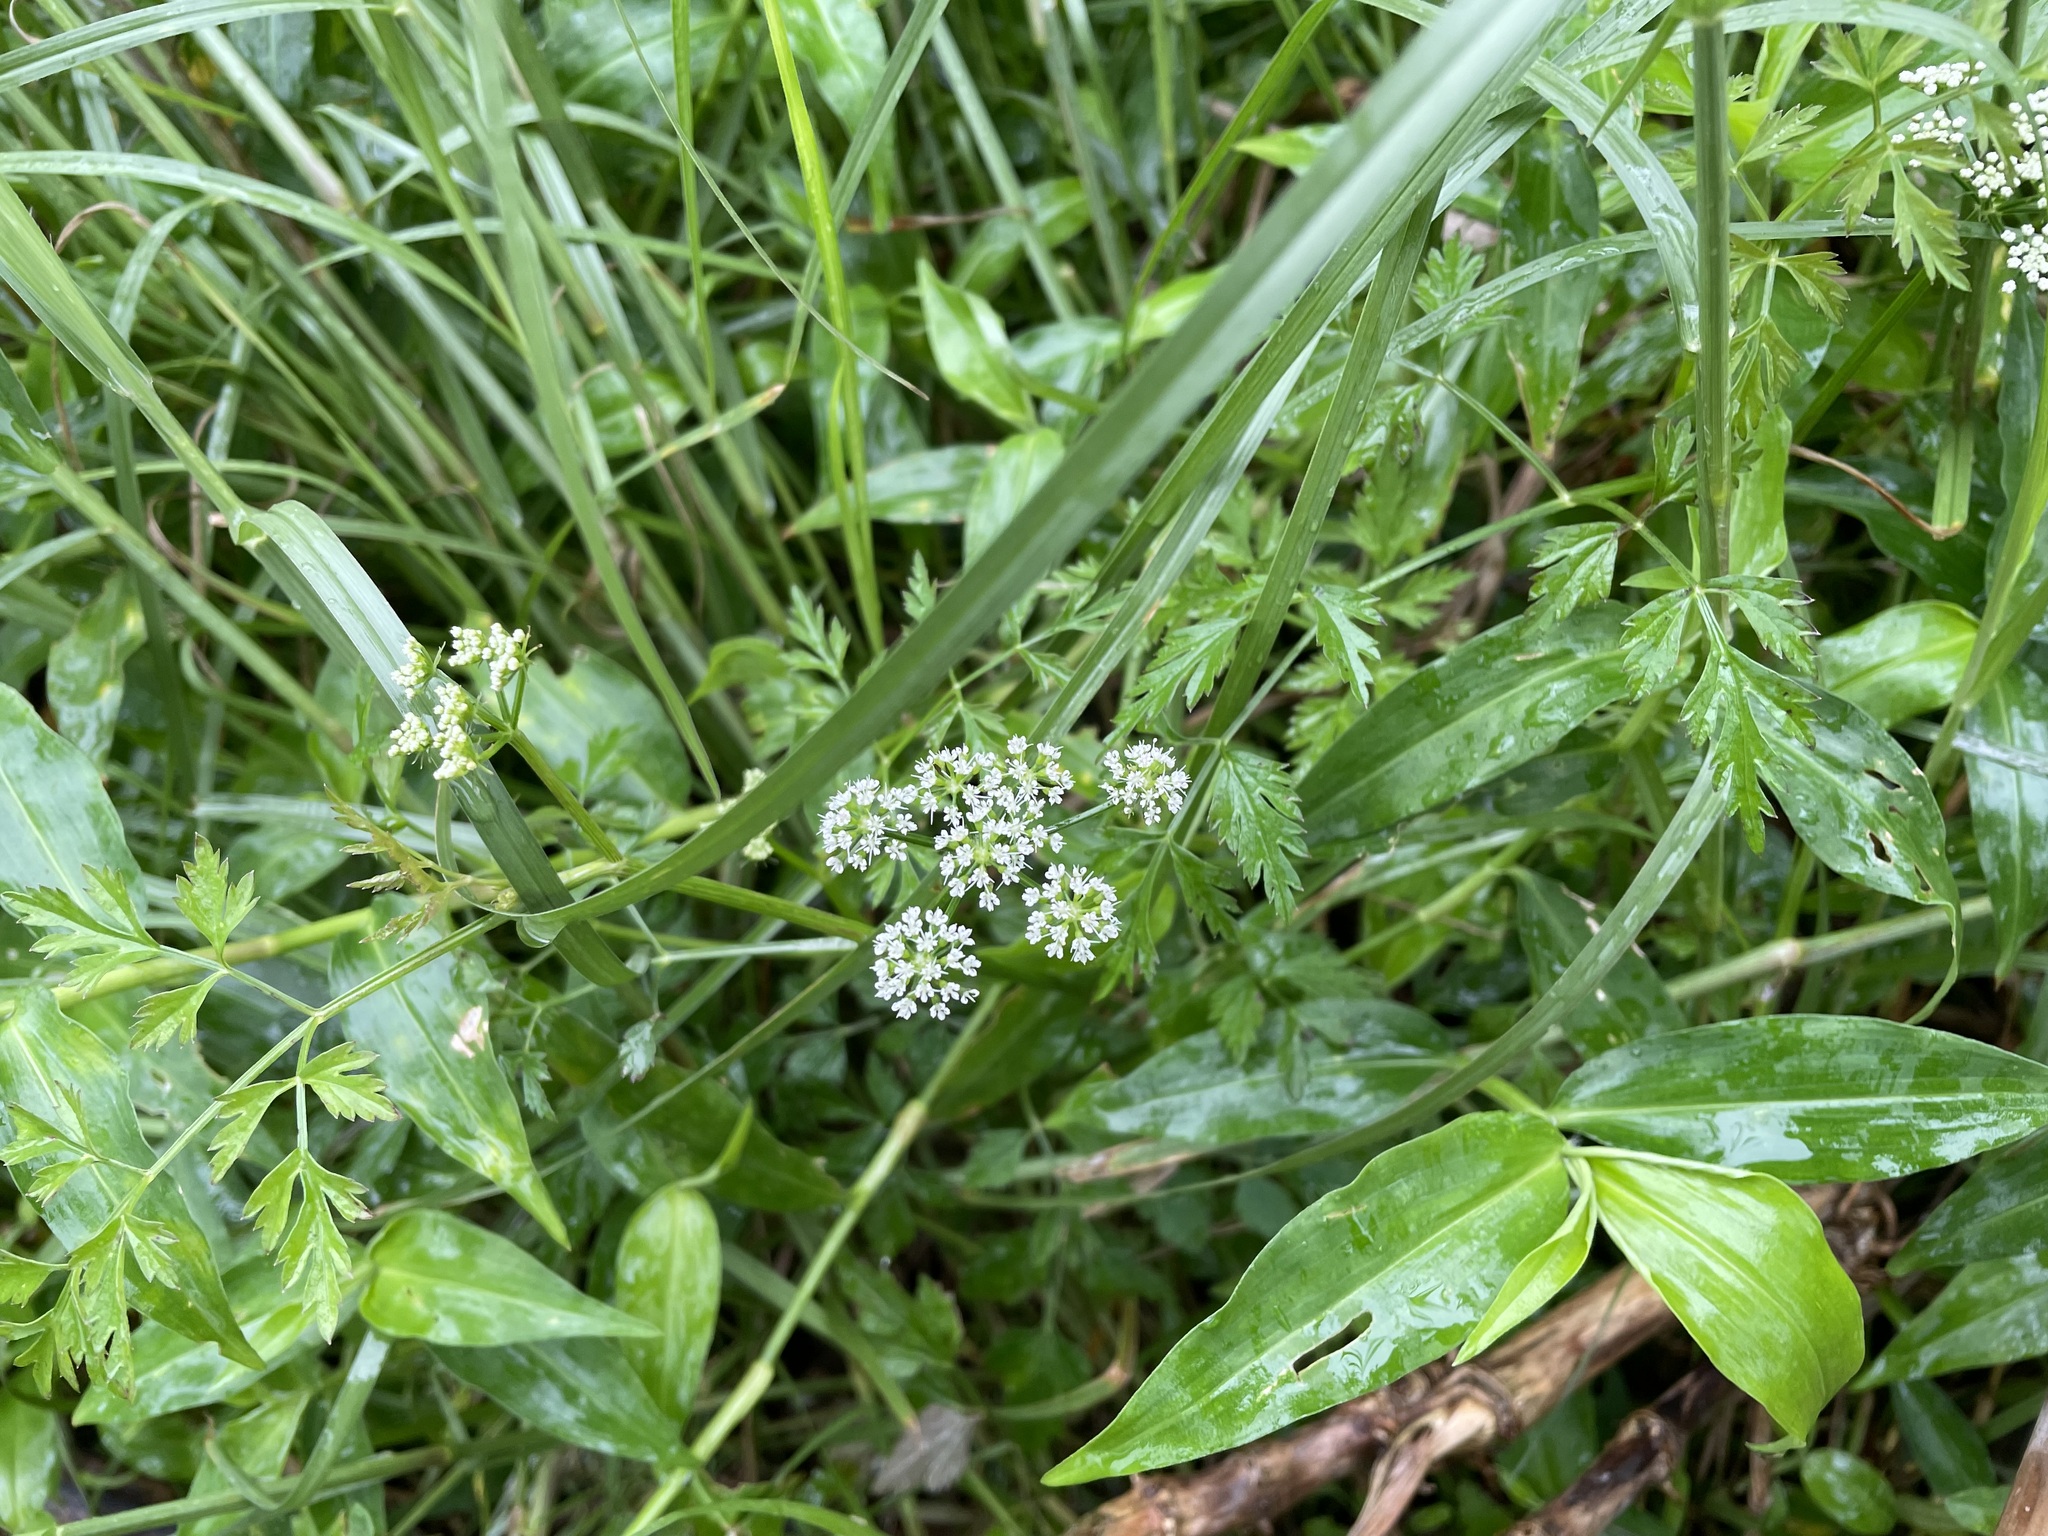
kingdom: Plantae
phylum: Tracheophyta
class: Magnoliopsida
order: Apiales
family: Apiaceae
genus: Oenanthe
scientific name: Oenanthe javanica
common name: Java water-dropwort
